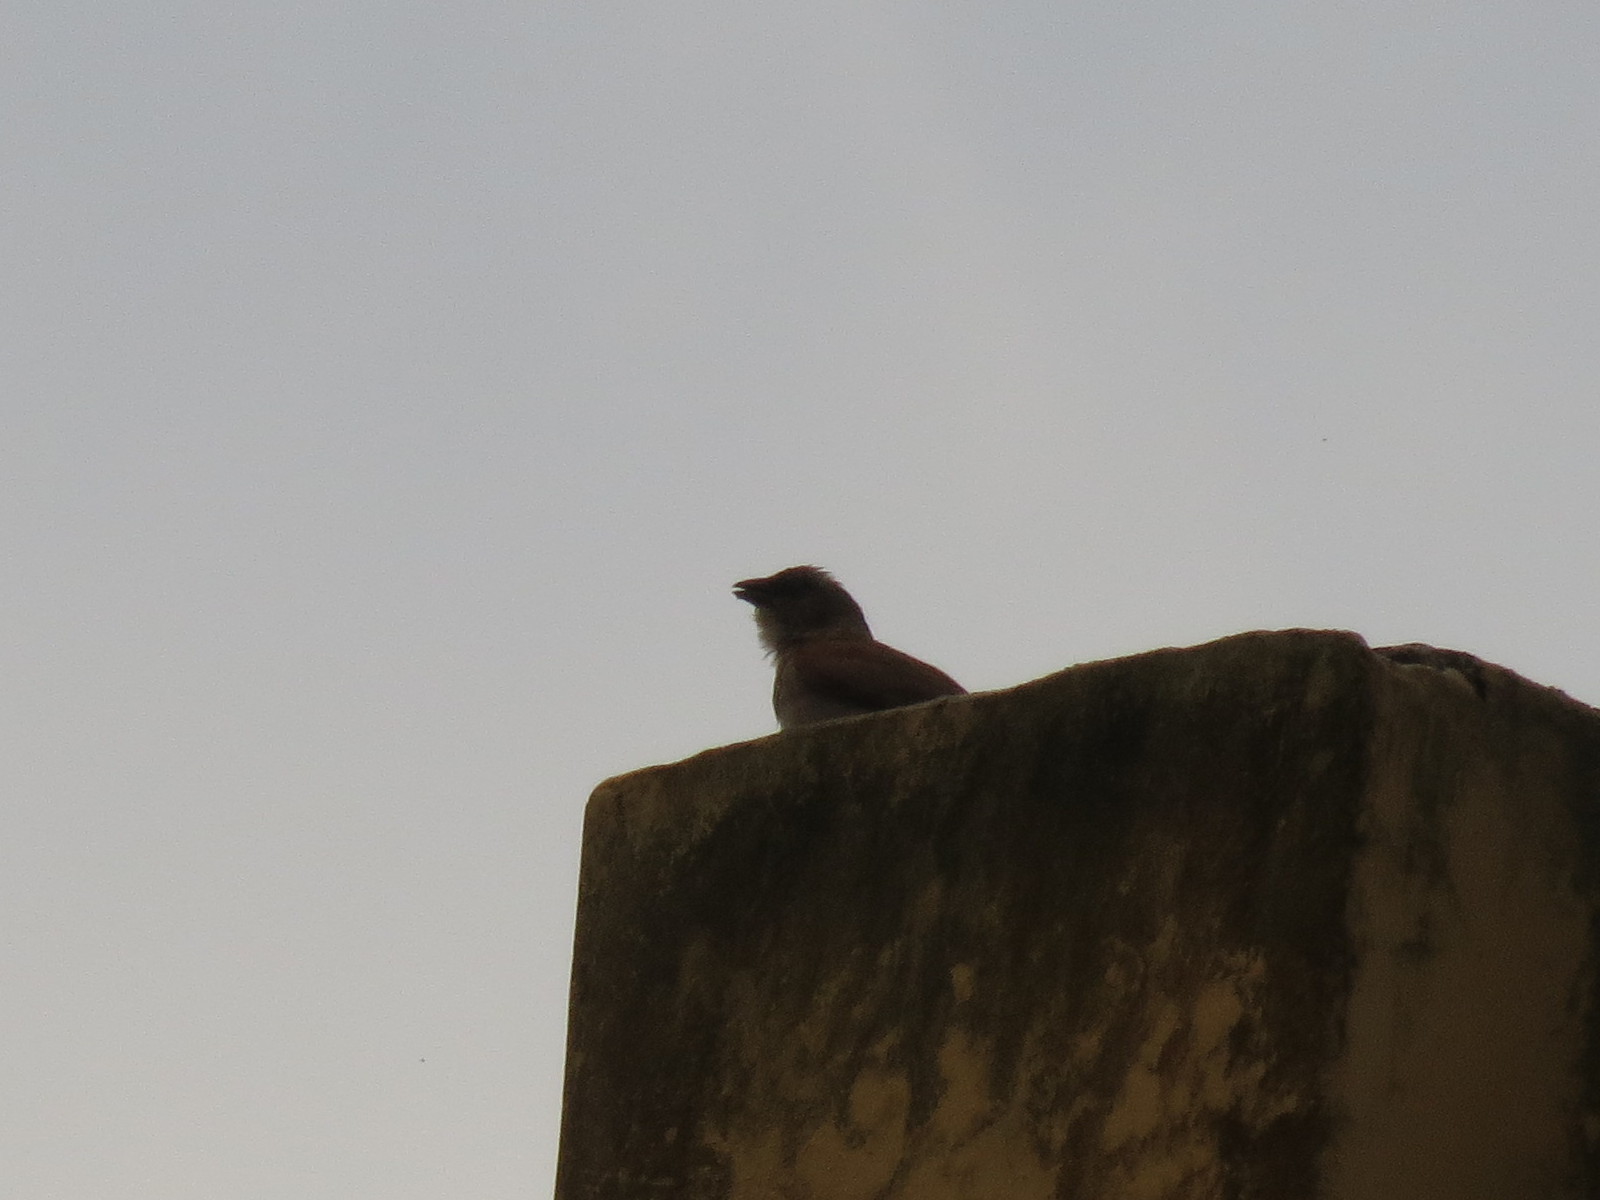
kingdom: Animalia
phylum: Chordata
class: Aves
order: Passeriformes
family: Passeridae
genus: Passer
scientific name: Passer griseus
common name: Northern grey-headed sparrow
